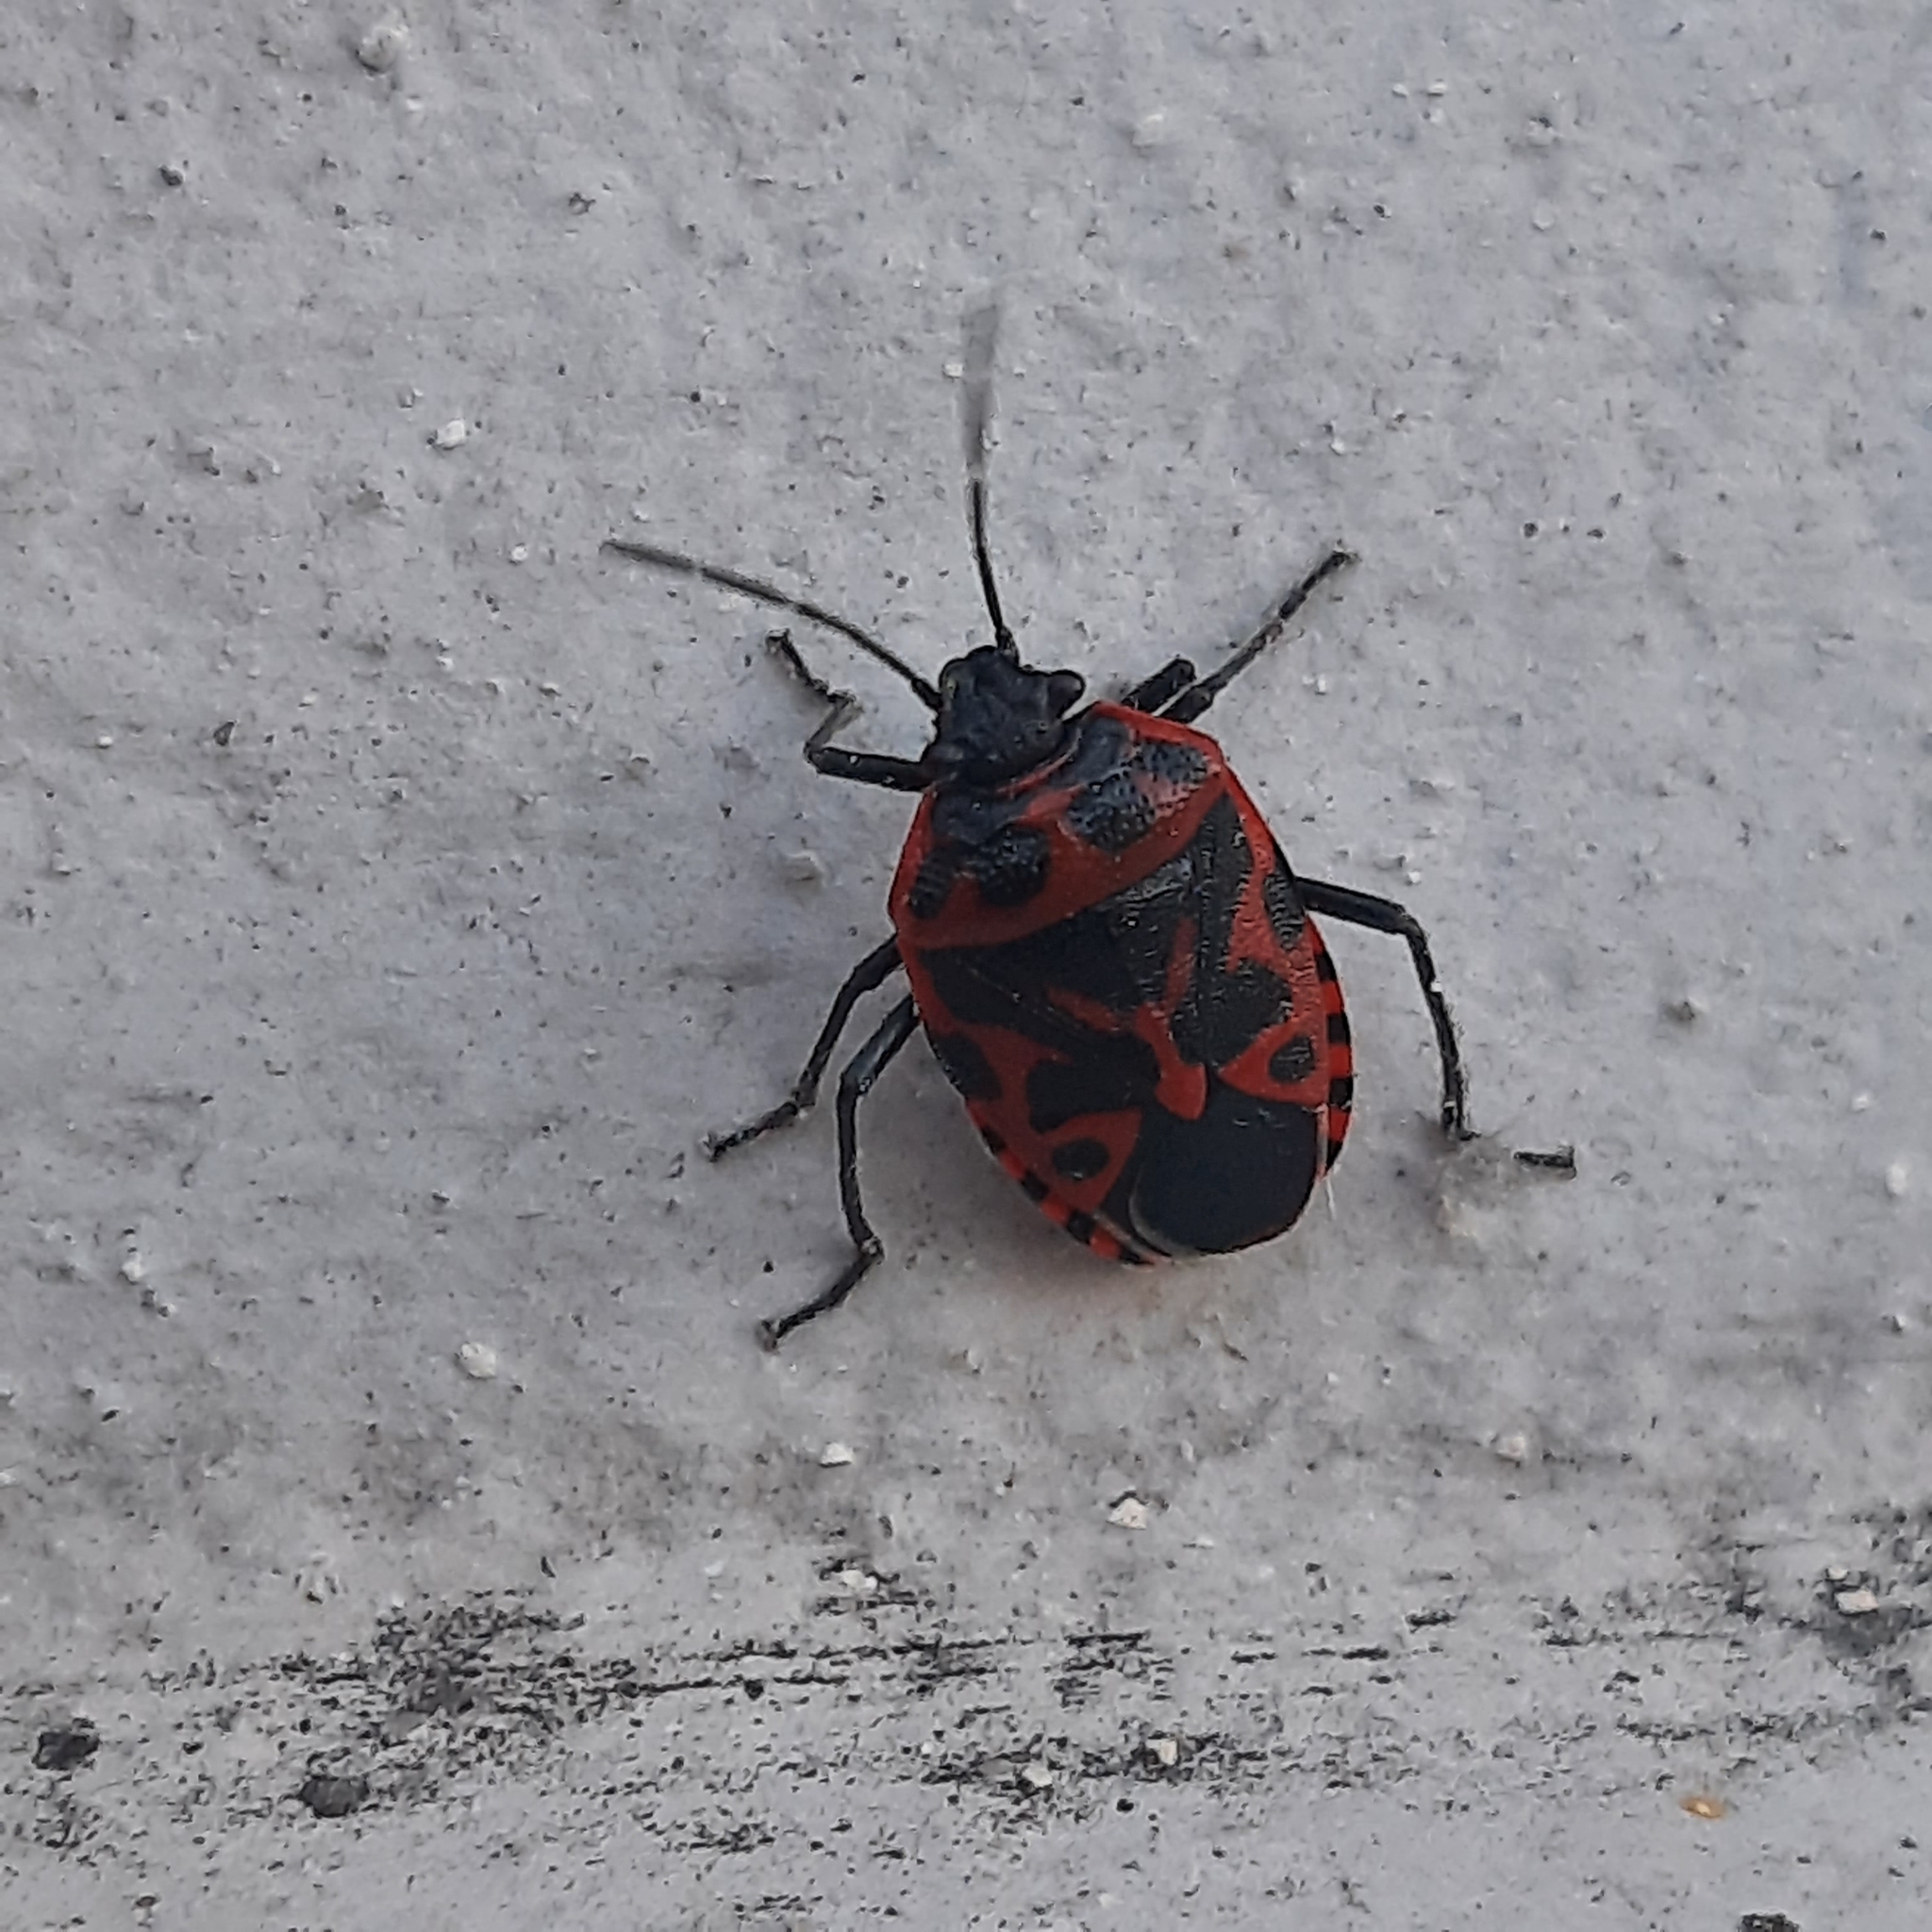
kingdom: Animalia
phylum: Arthropoda
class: Insecta
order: Hemiptera
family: Pentatomidae
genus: Eurydema
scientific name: Eurydema ventralis
